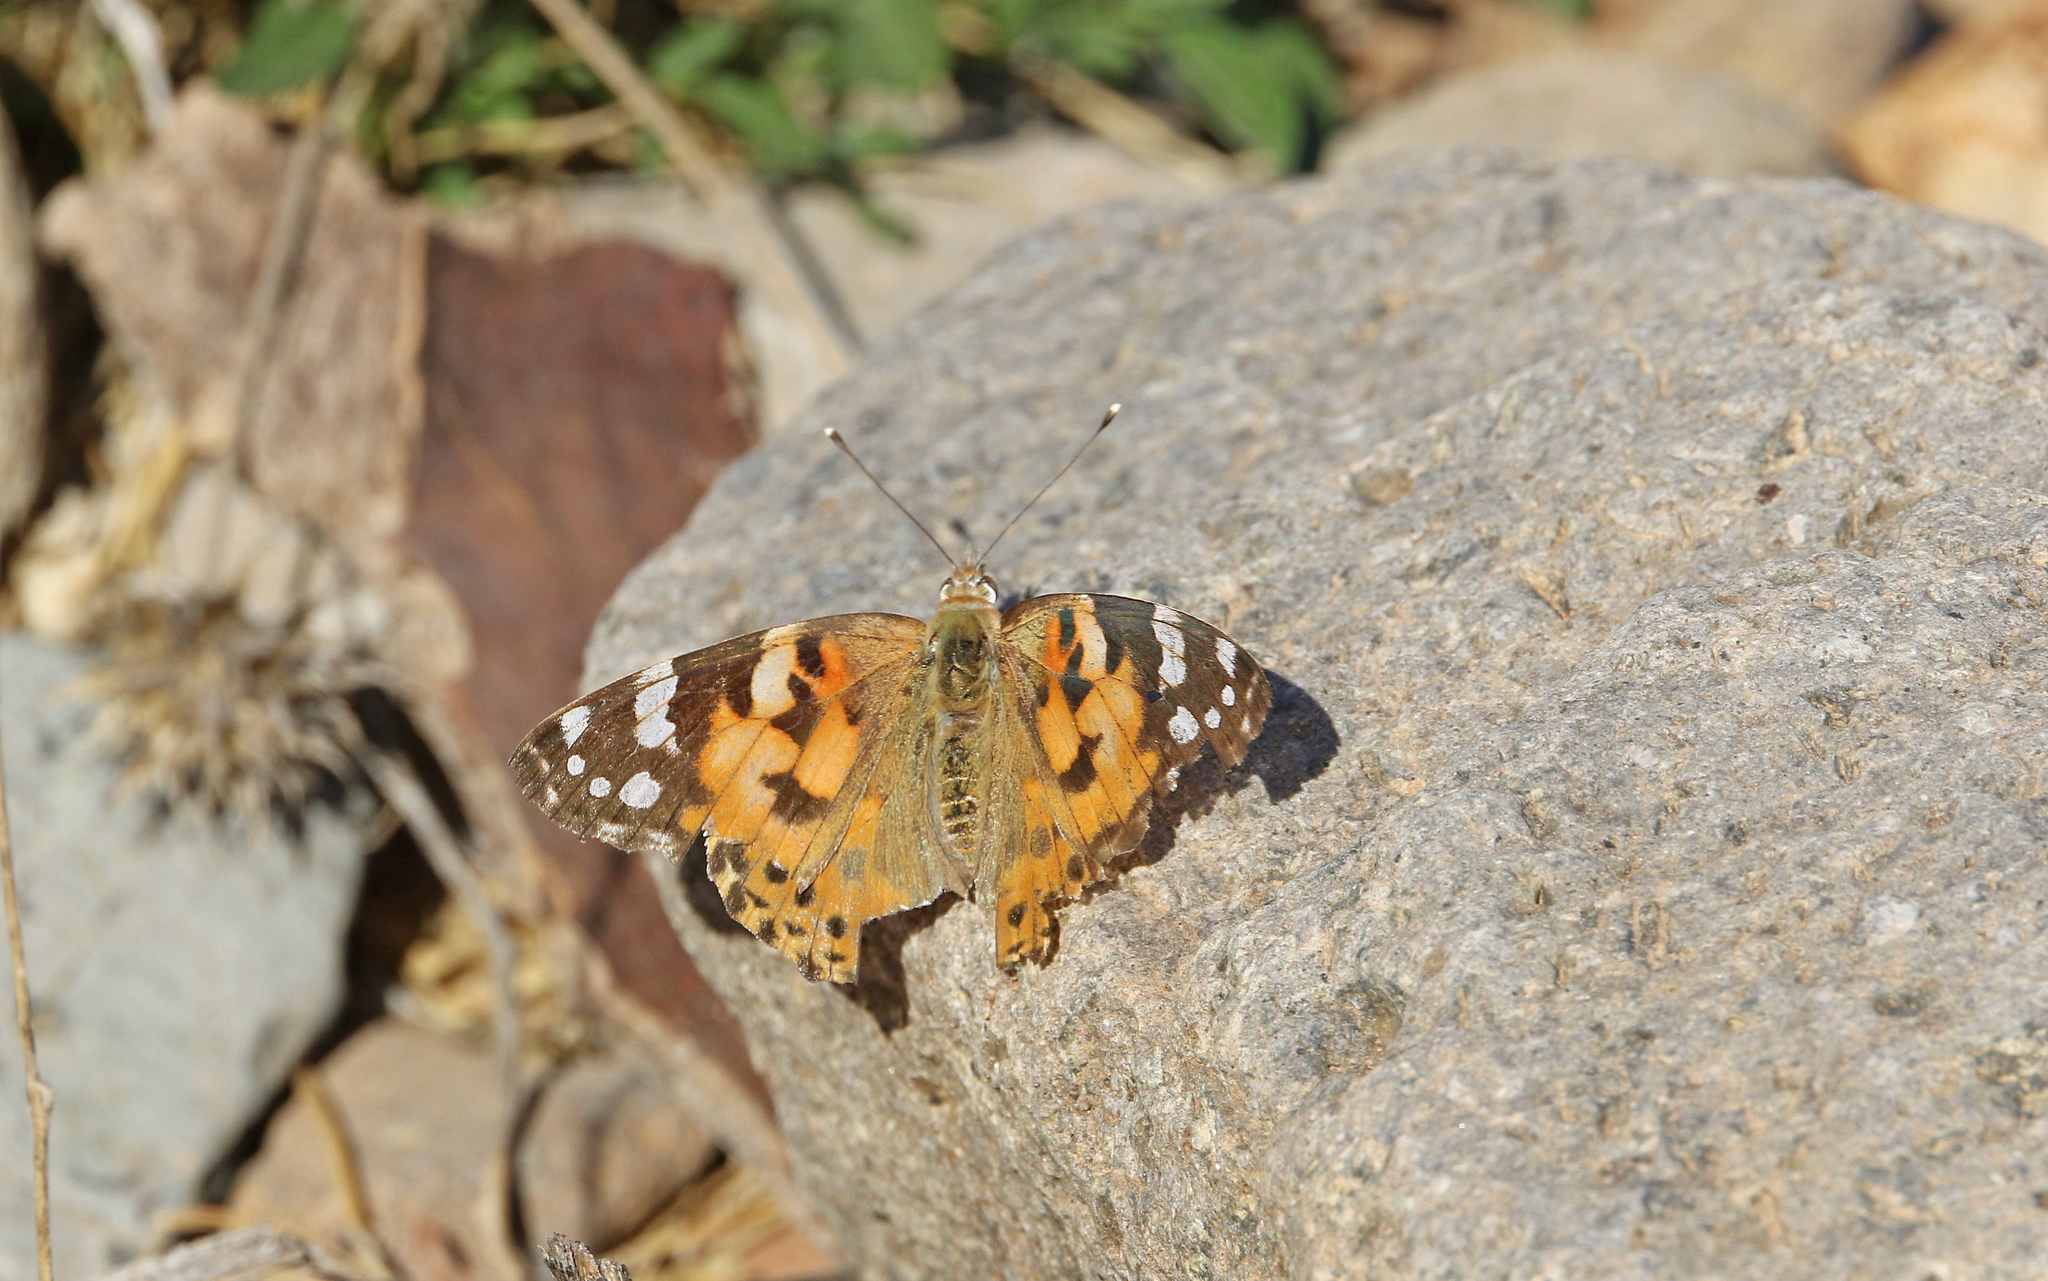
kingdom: Animalia
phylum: Arthropoda
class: Insecta
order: Lepidoptera
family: Nymphalidae
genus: Vanessa
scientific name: Vanessa cardui
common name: Painted lady
